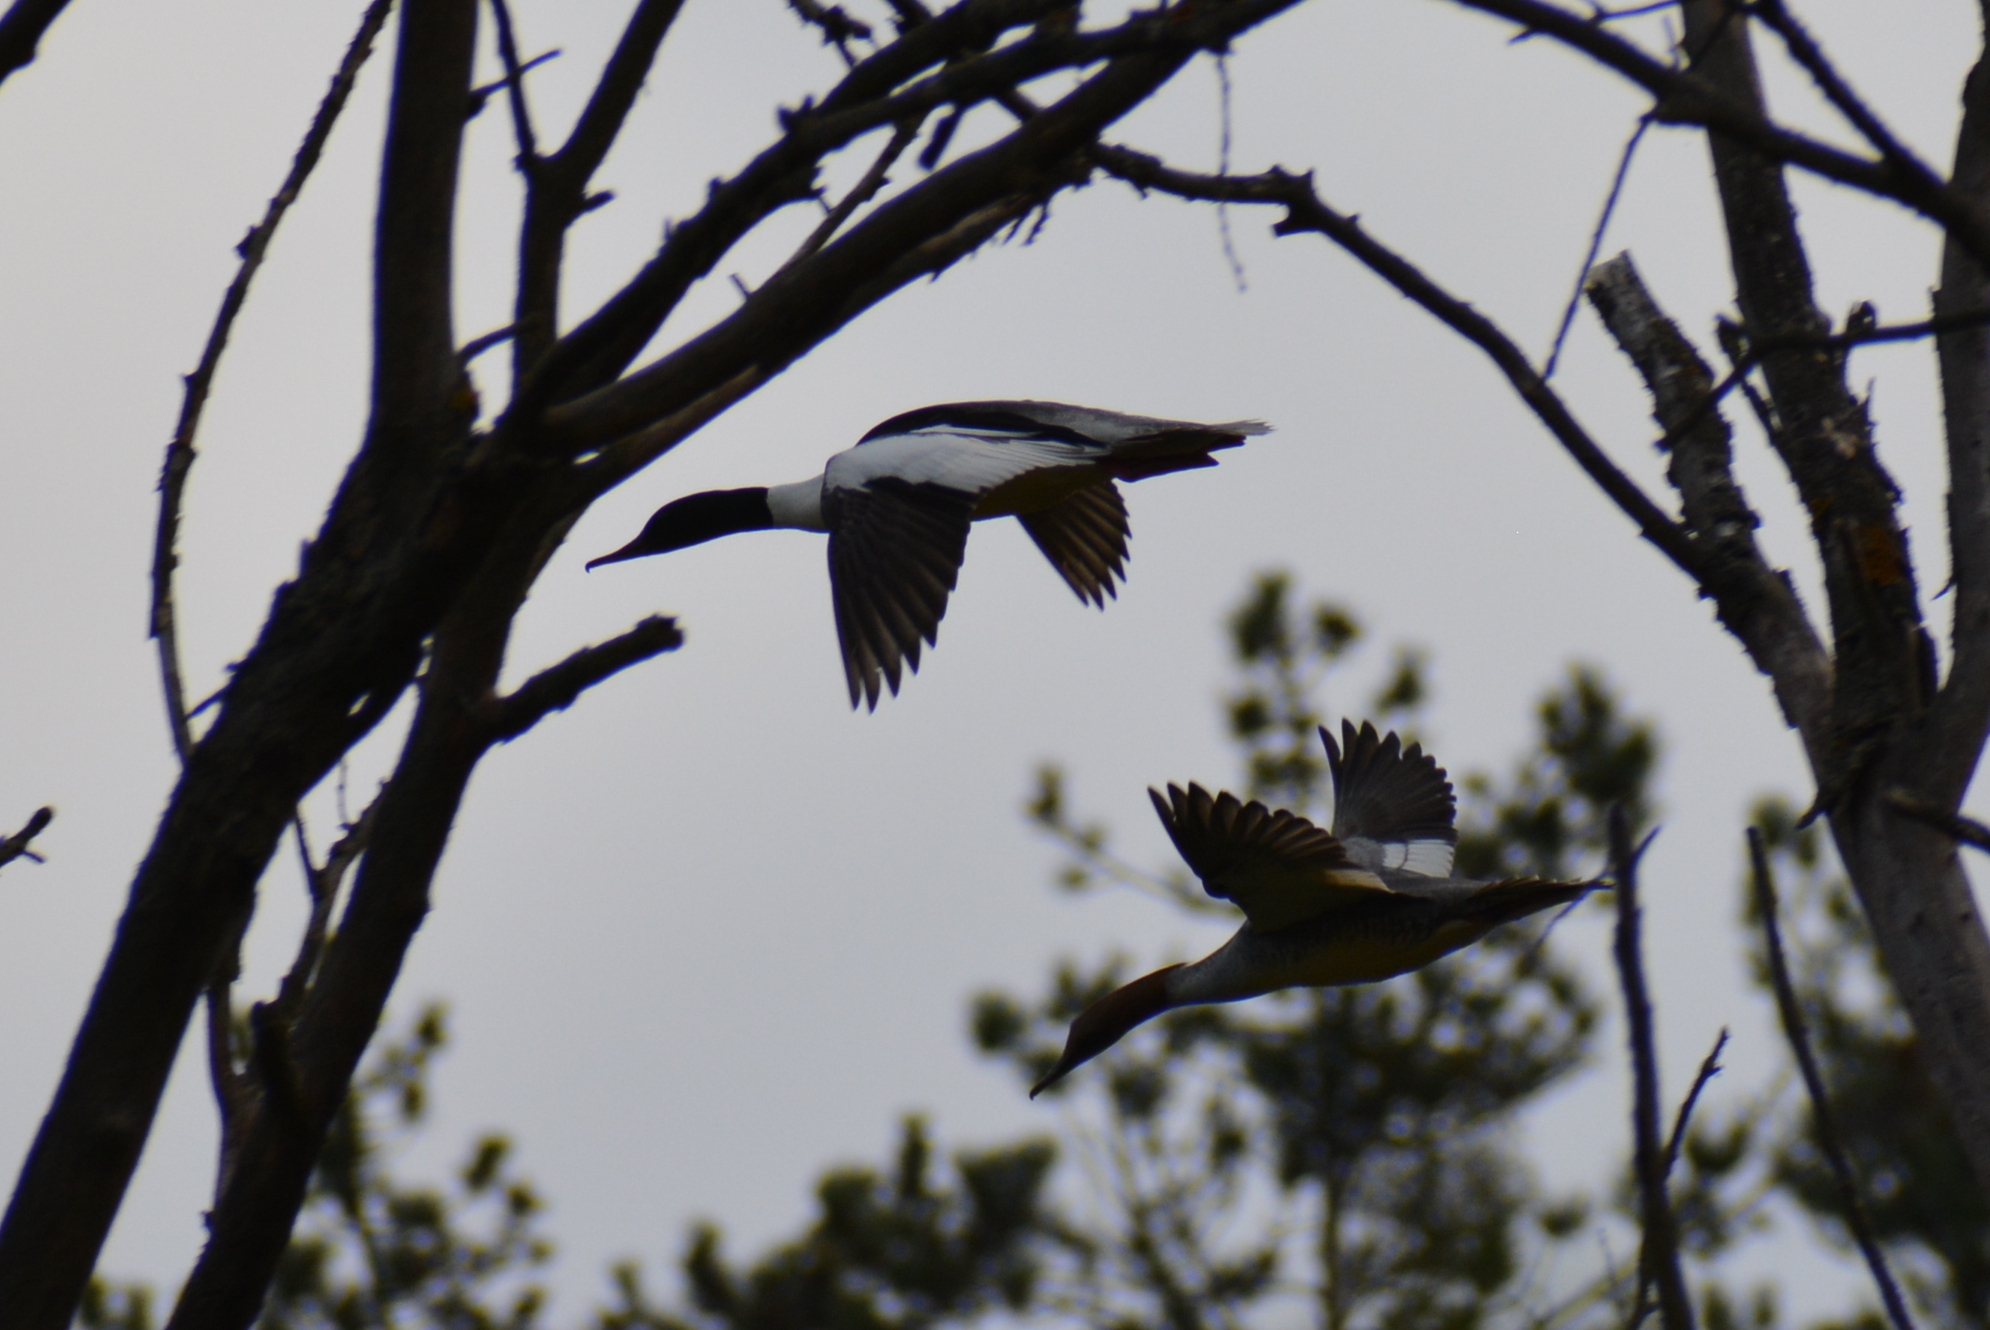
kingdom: Animalia
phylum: Chordata
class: Aves
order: Anseriformes
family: Anatidae
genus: Mergus
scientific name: Mergus merganser
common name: Common merganser
